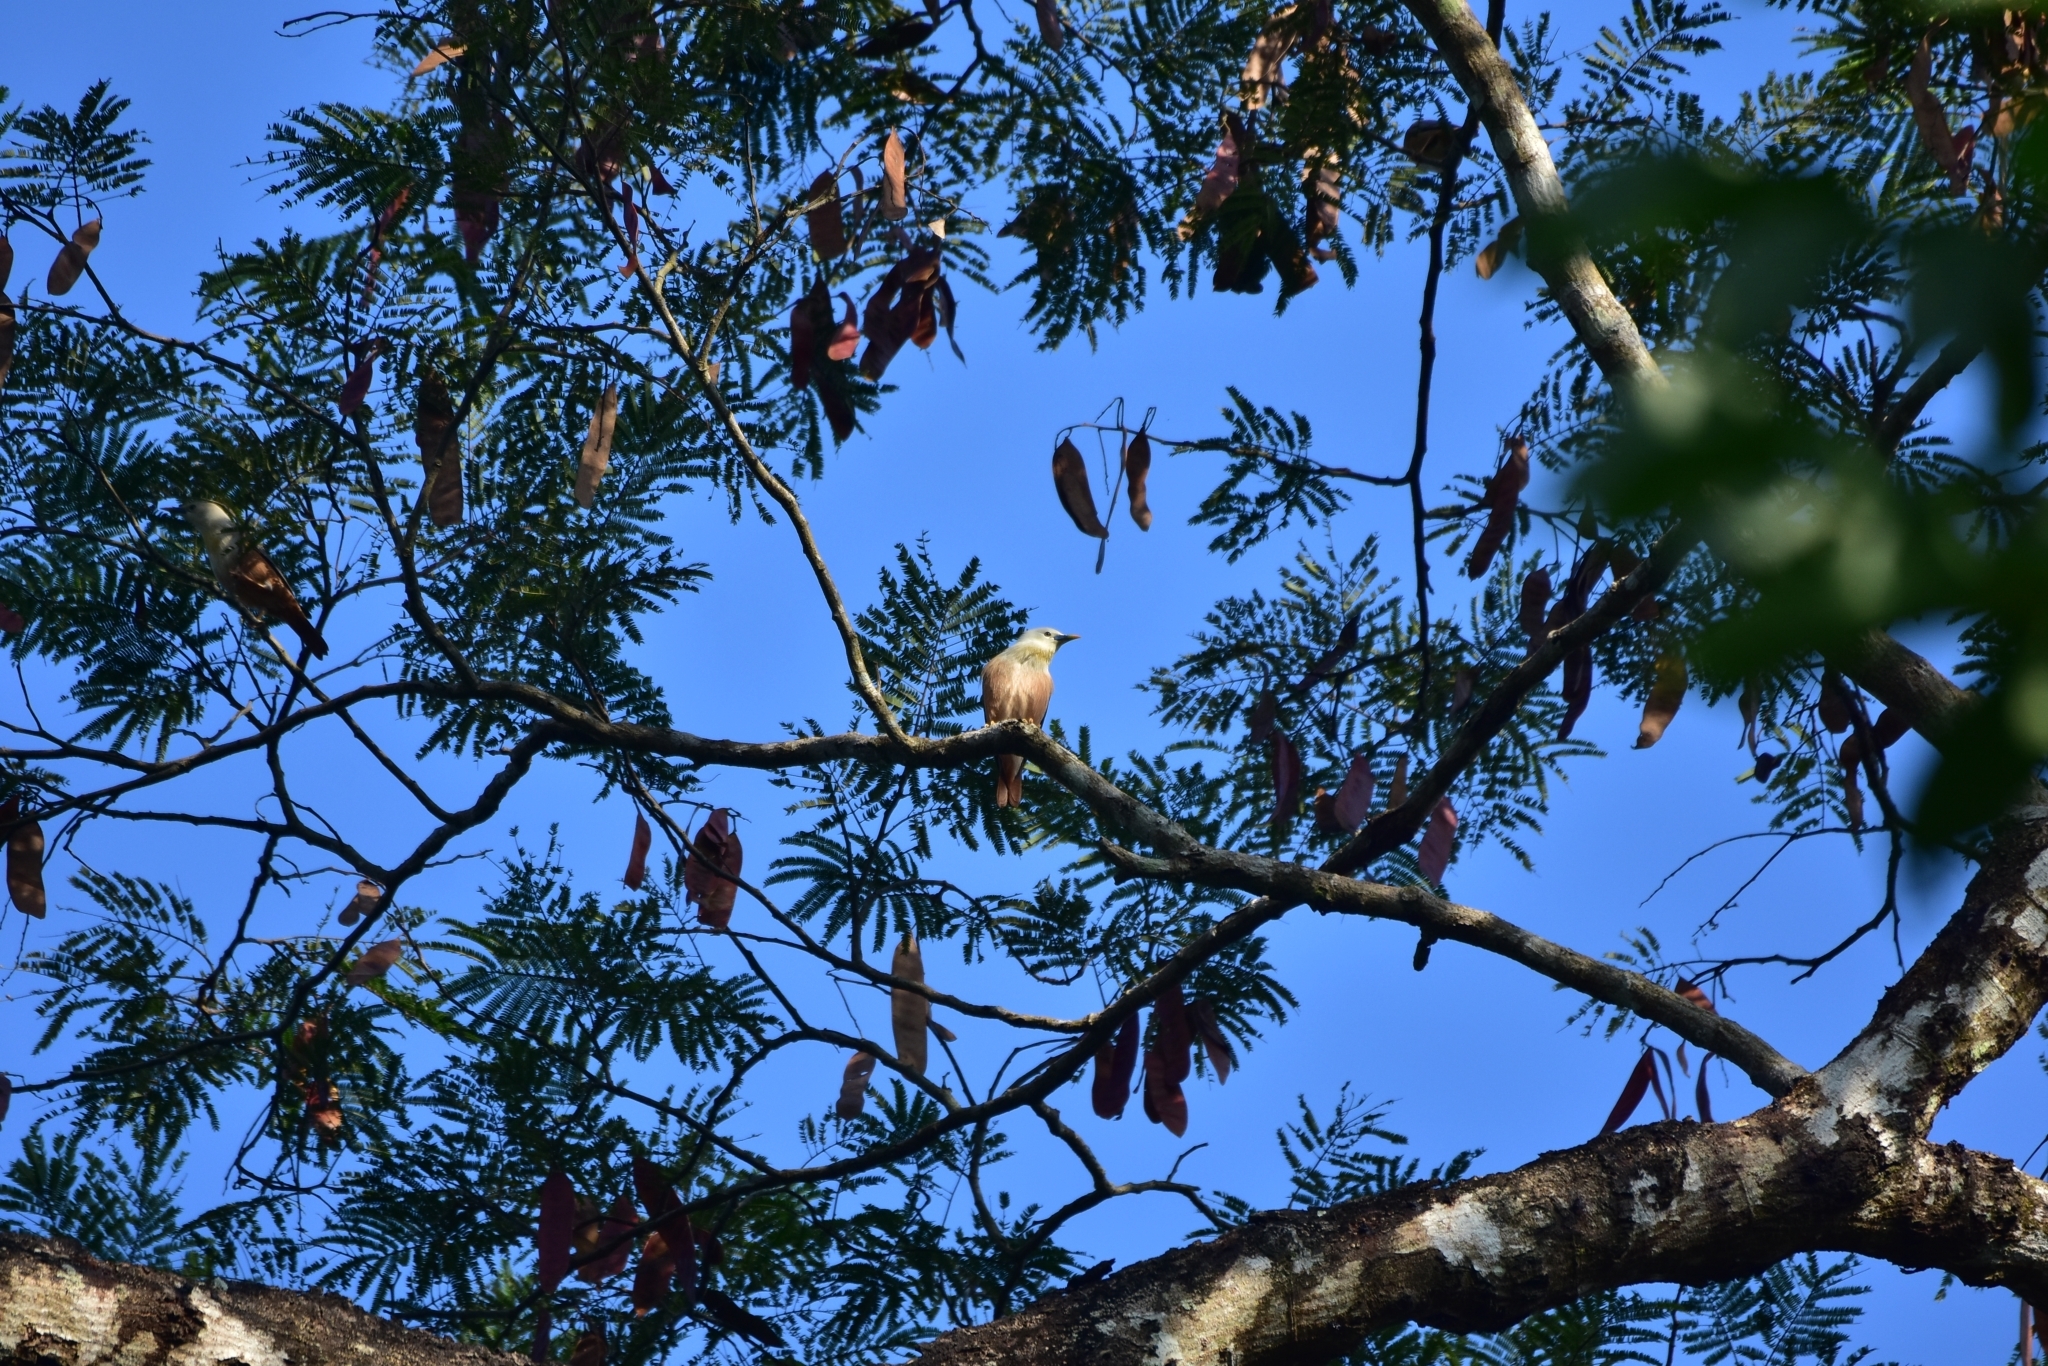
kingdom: Animalia
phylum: Chordata
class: Aves
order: Passeriformes
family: Sturnidae
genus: Sturnia
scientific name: Sturnia blythii
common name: Malabar starling
